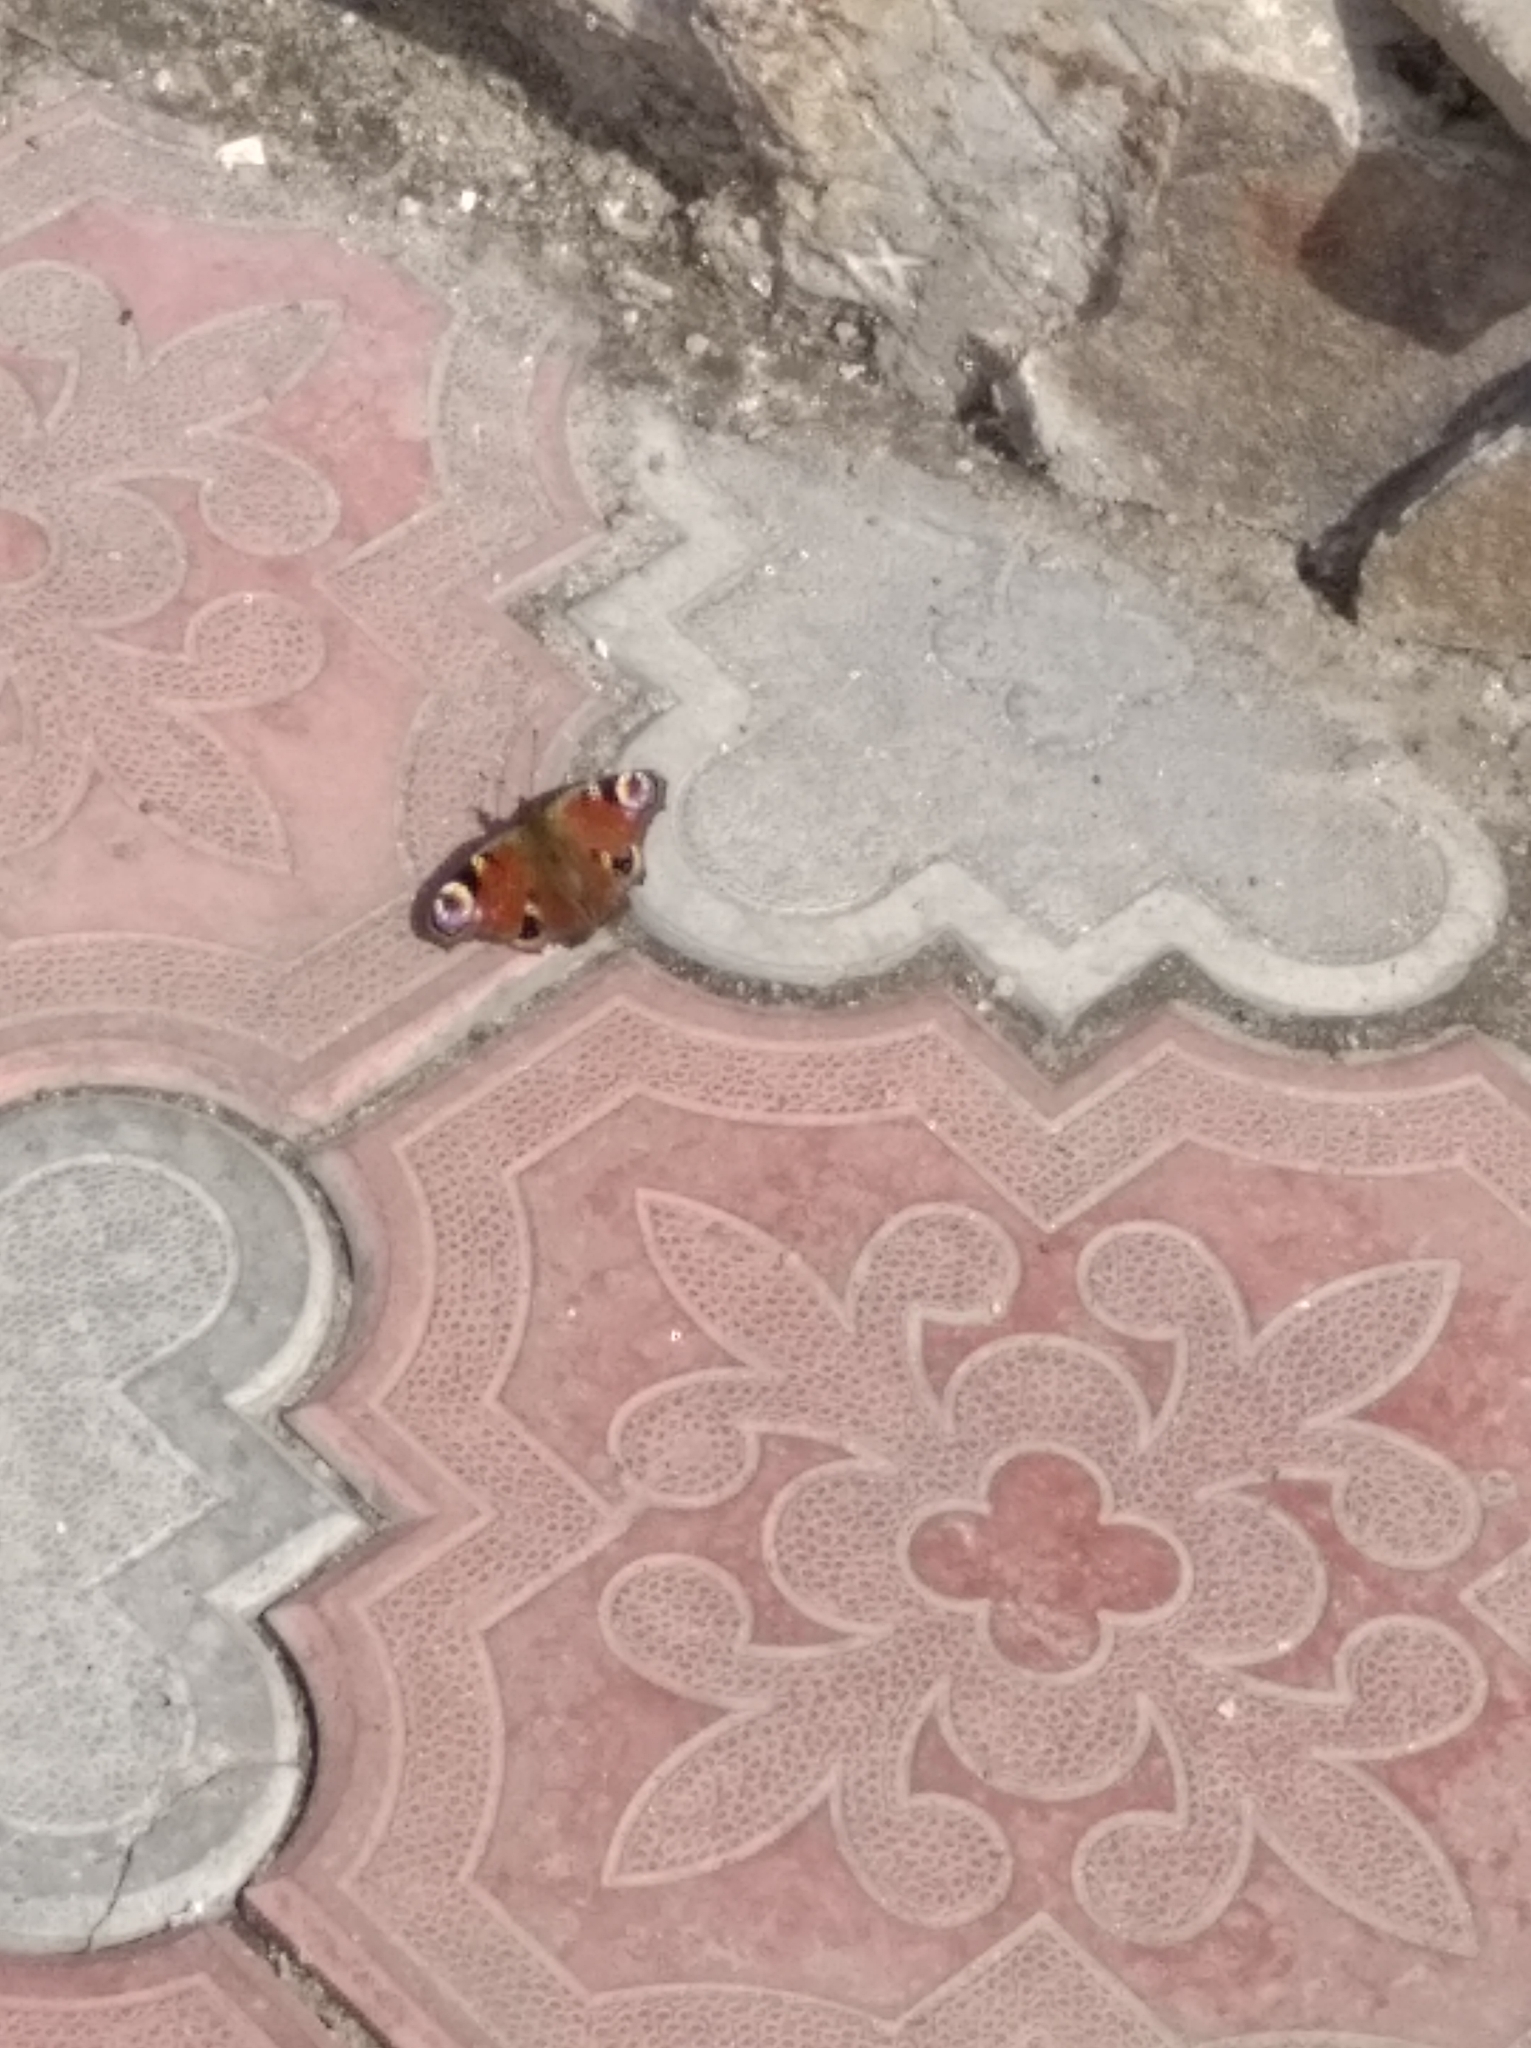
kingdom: Animalia
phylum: Arthropoda
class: Insecta
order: Lepidoptera
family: Nymphalidae
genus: Aglais
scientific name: Aglais io
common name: Peacock
